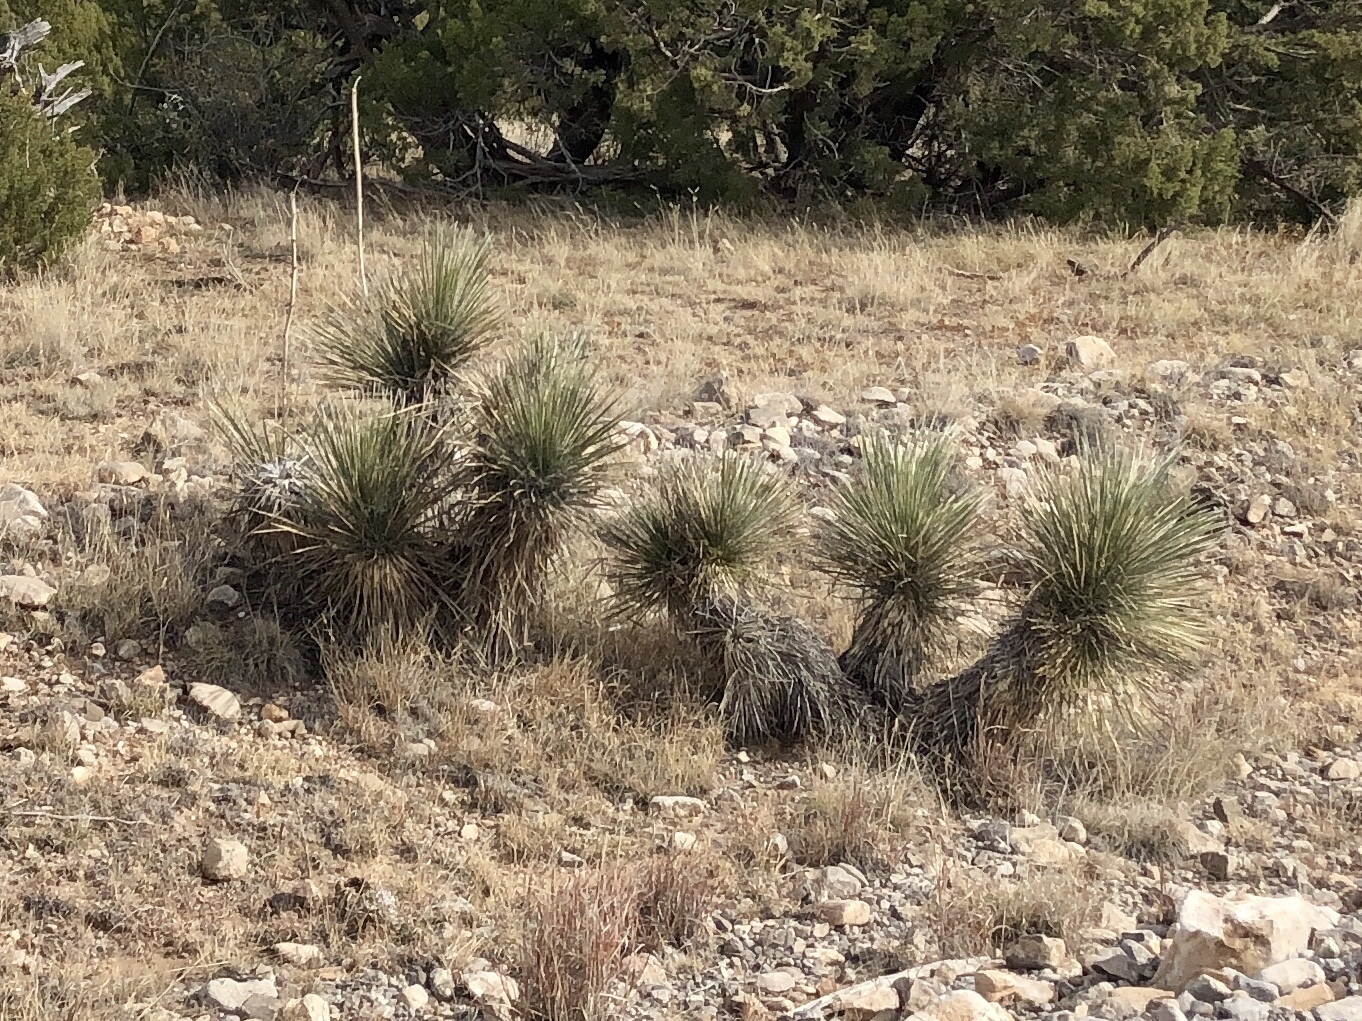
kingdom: Plantae
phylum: Tracheophyta
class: Liliopsida
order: Asparagales
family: Asparagaceae
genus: Yucca
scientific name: Yucca elata
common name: Palmella
